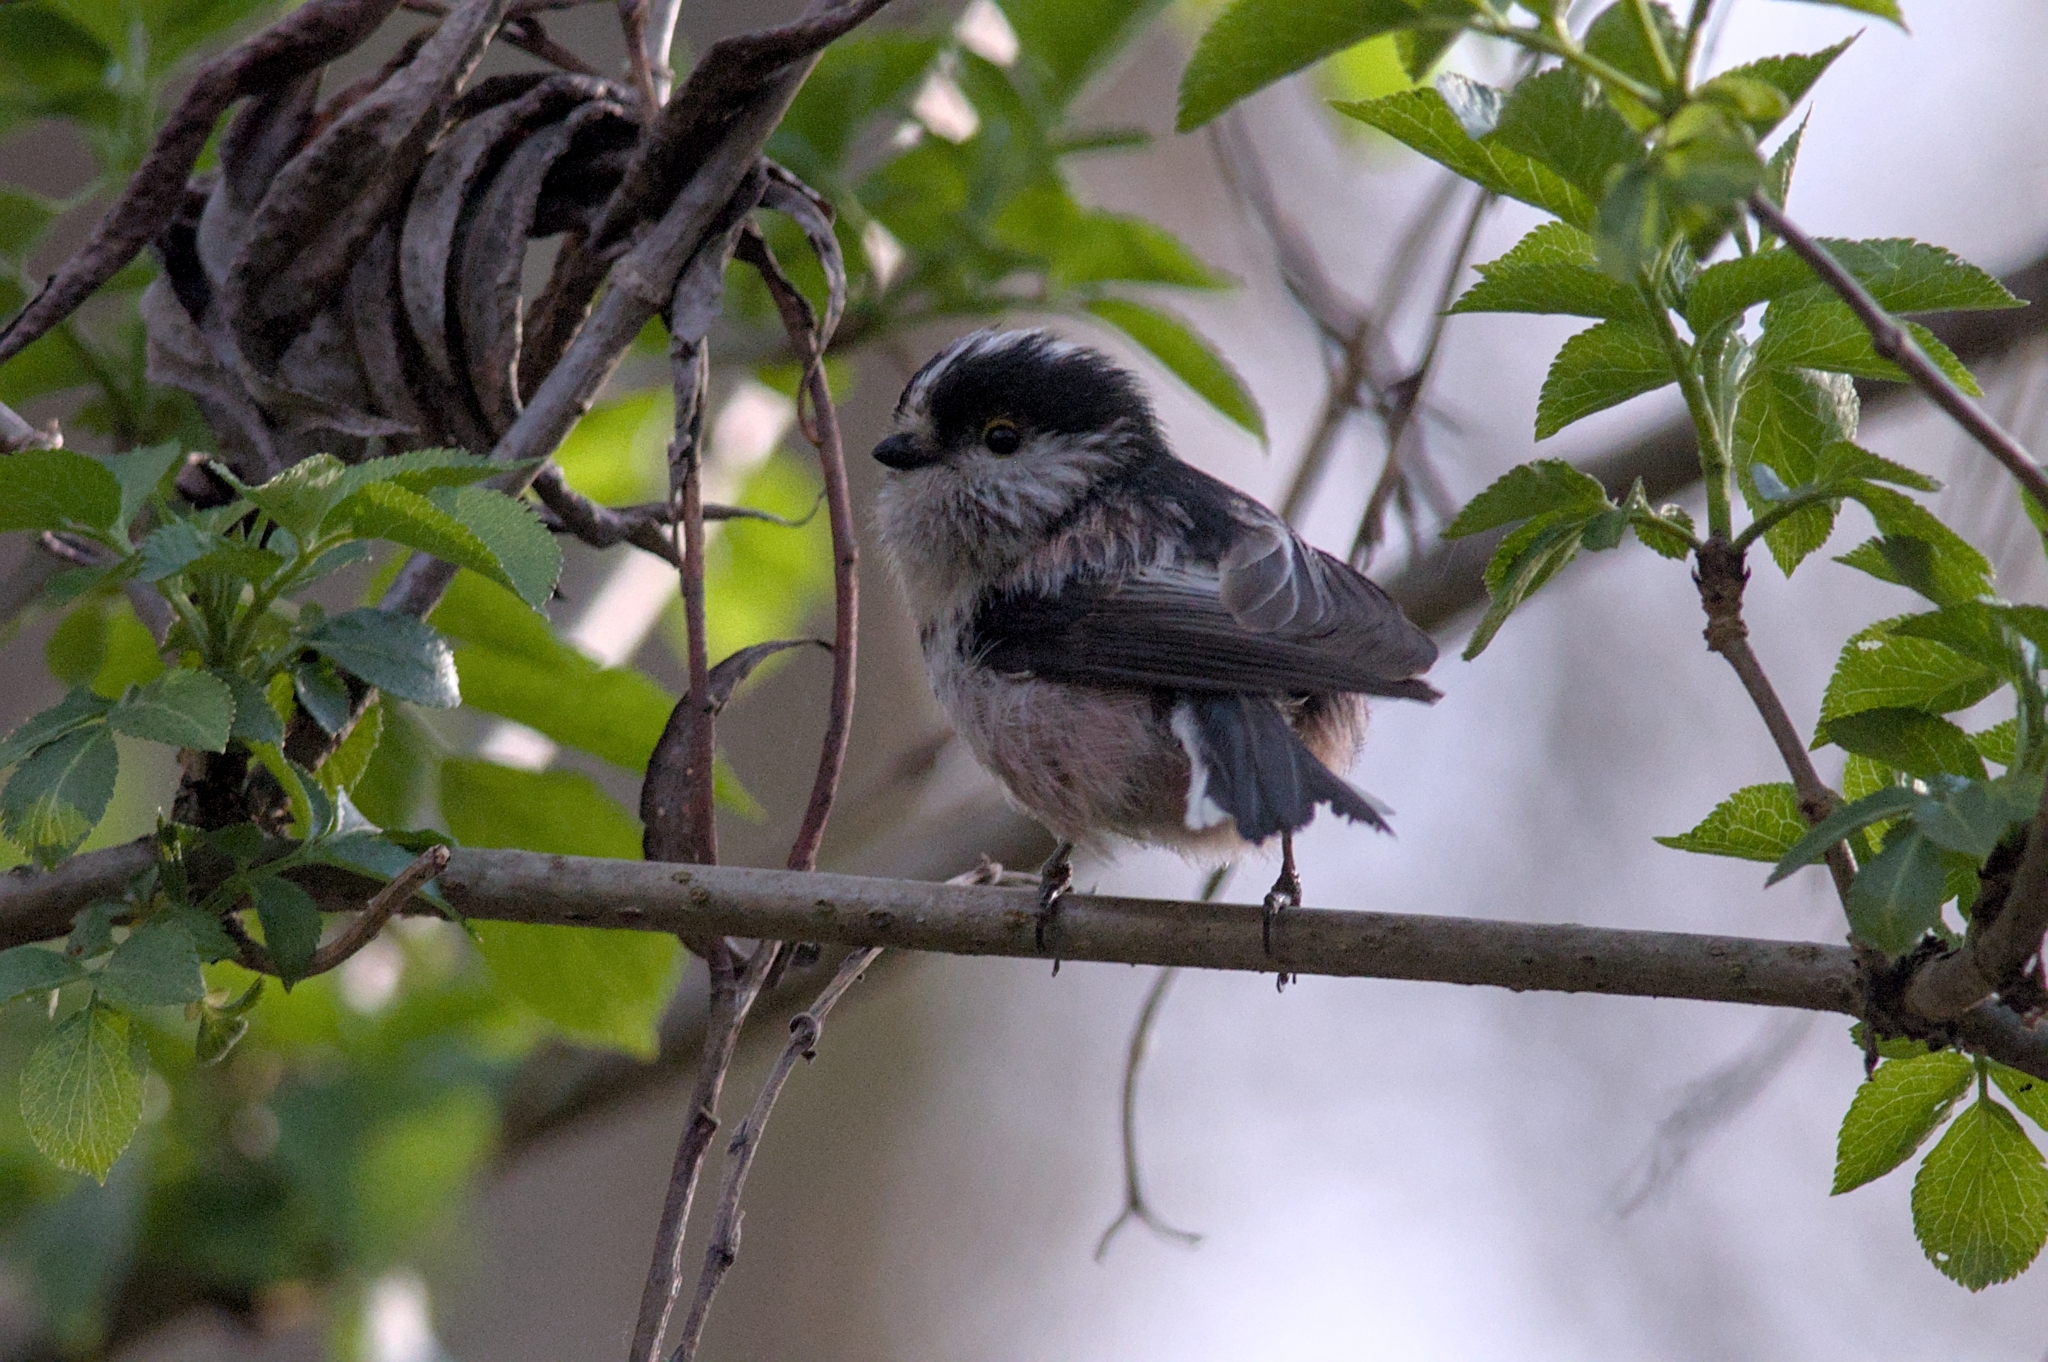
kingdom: Animalia
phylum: Chordata
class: Aves
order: Passeriformes
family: Aegithalidae
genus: Aegithalos
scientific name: Aegithalos caudatus
